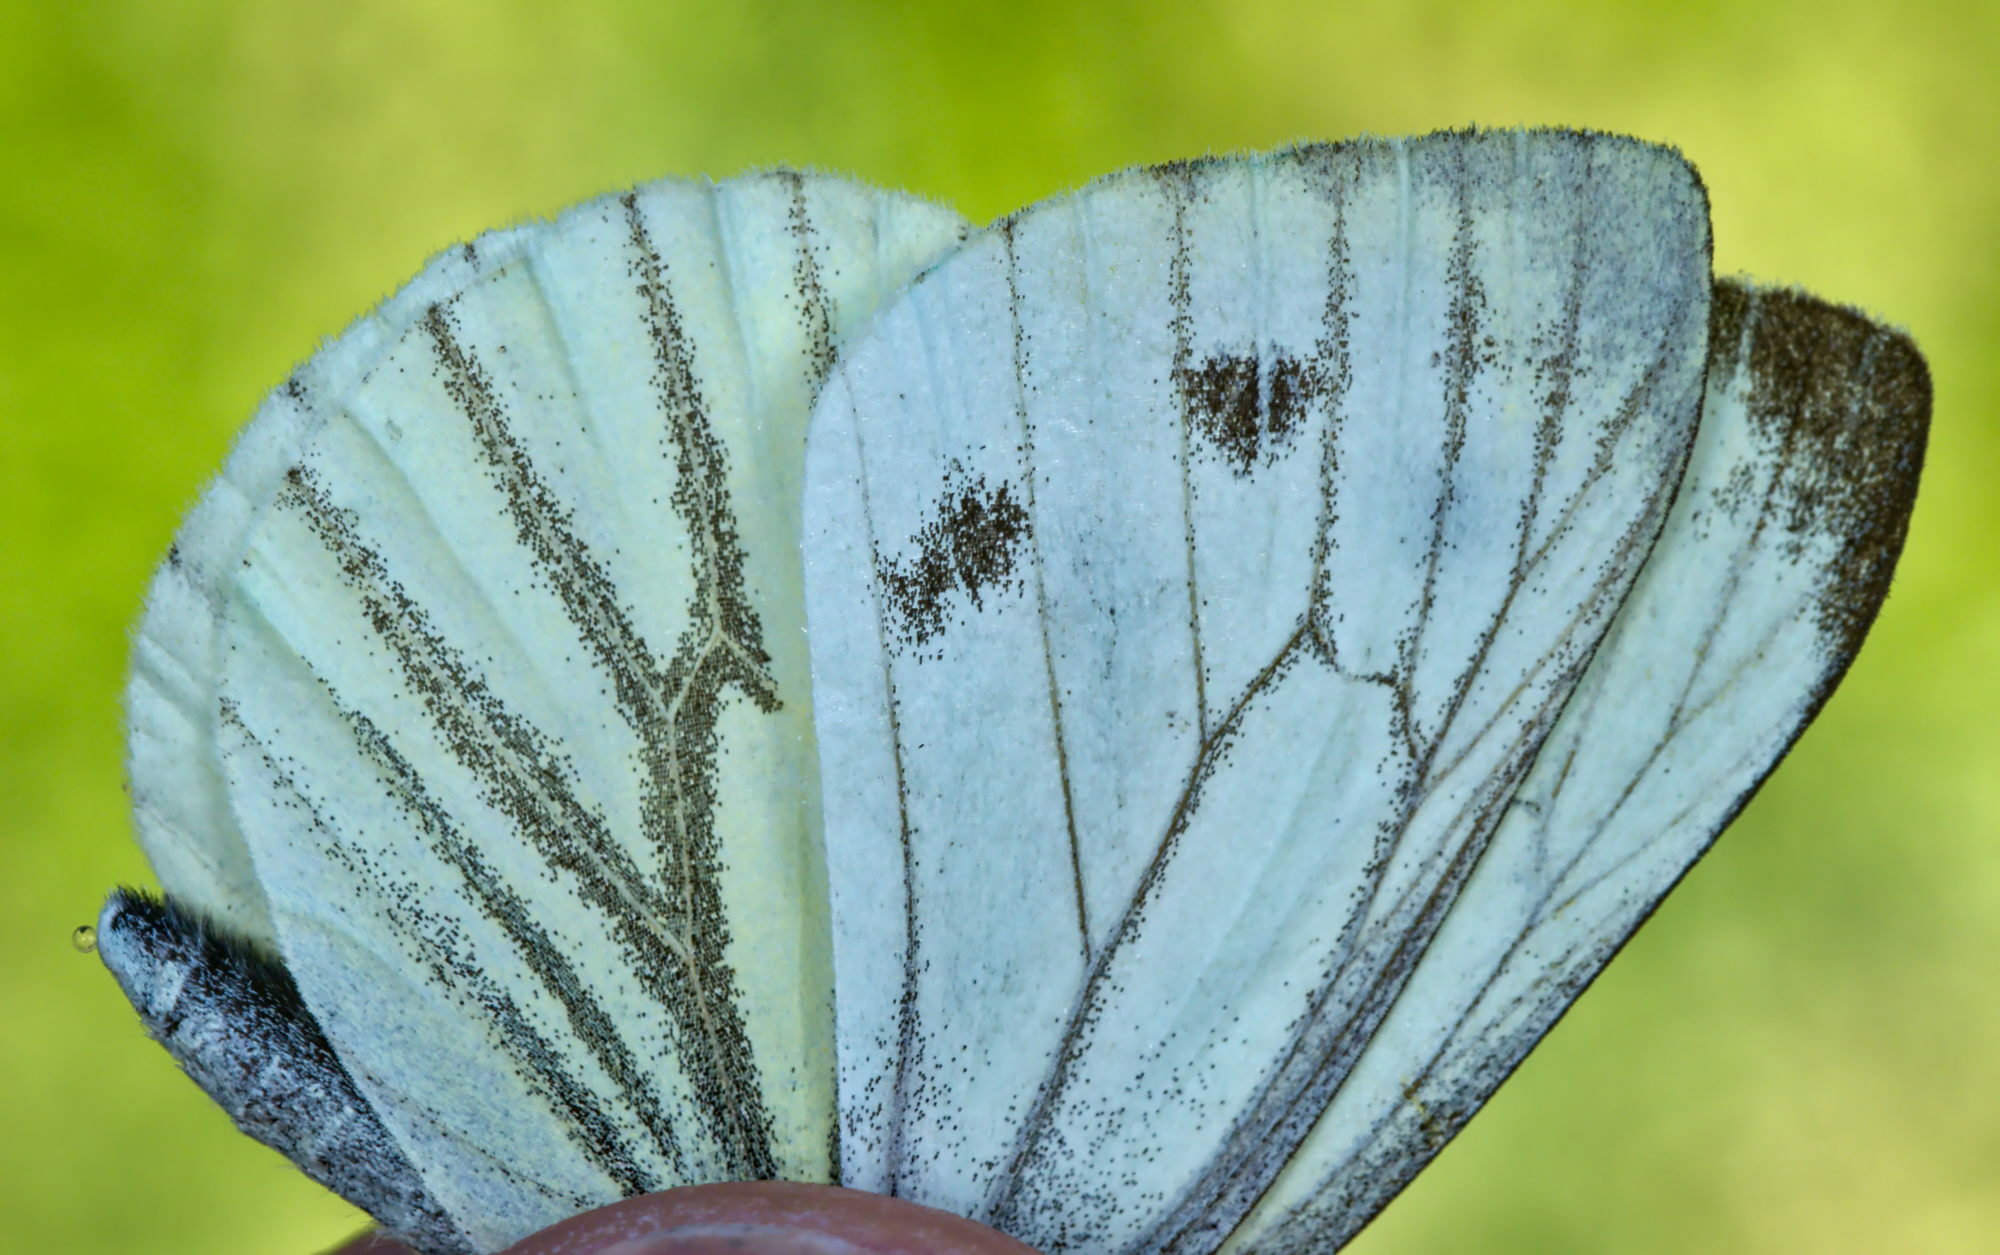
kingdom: Animalia
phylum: Arthropoda
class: Insecta
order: Lepidoptera
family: Pieridae
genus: Pieris
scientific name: Pieris napi
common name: Green-veined white
